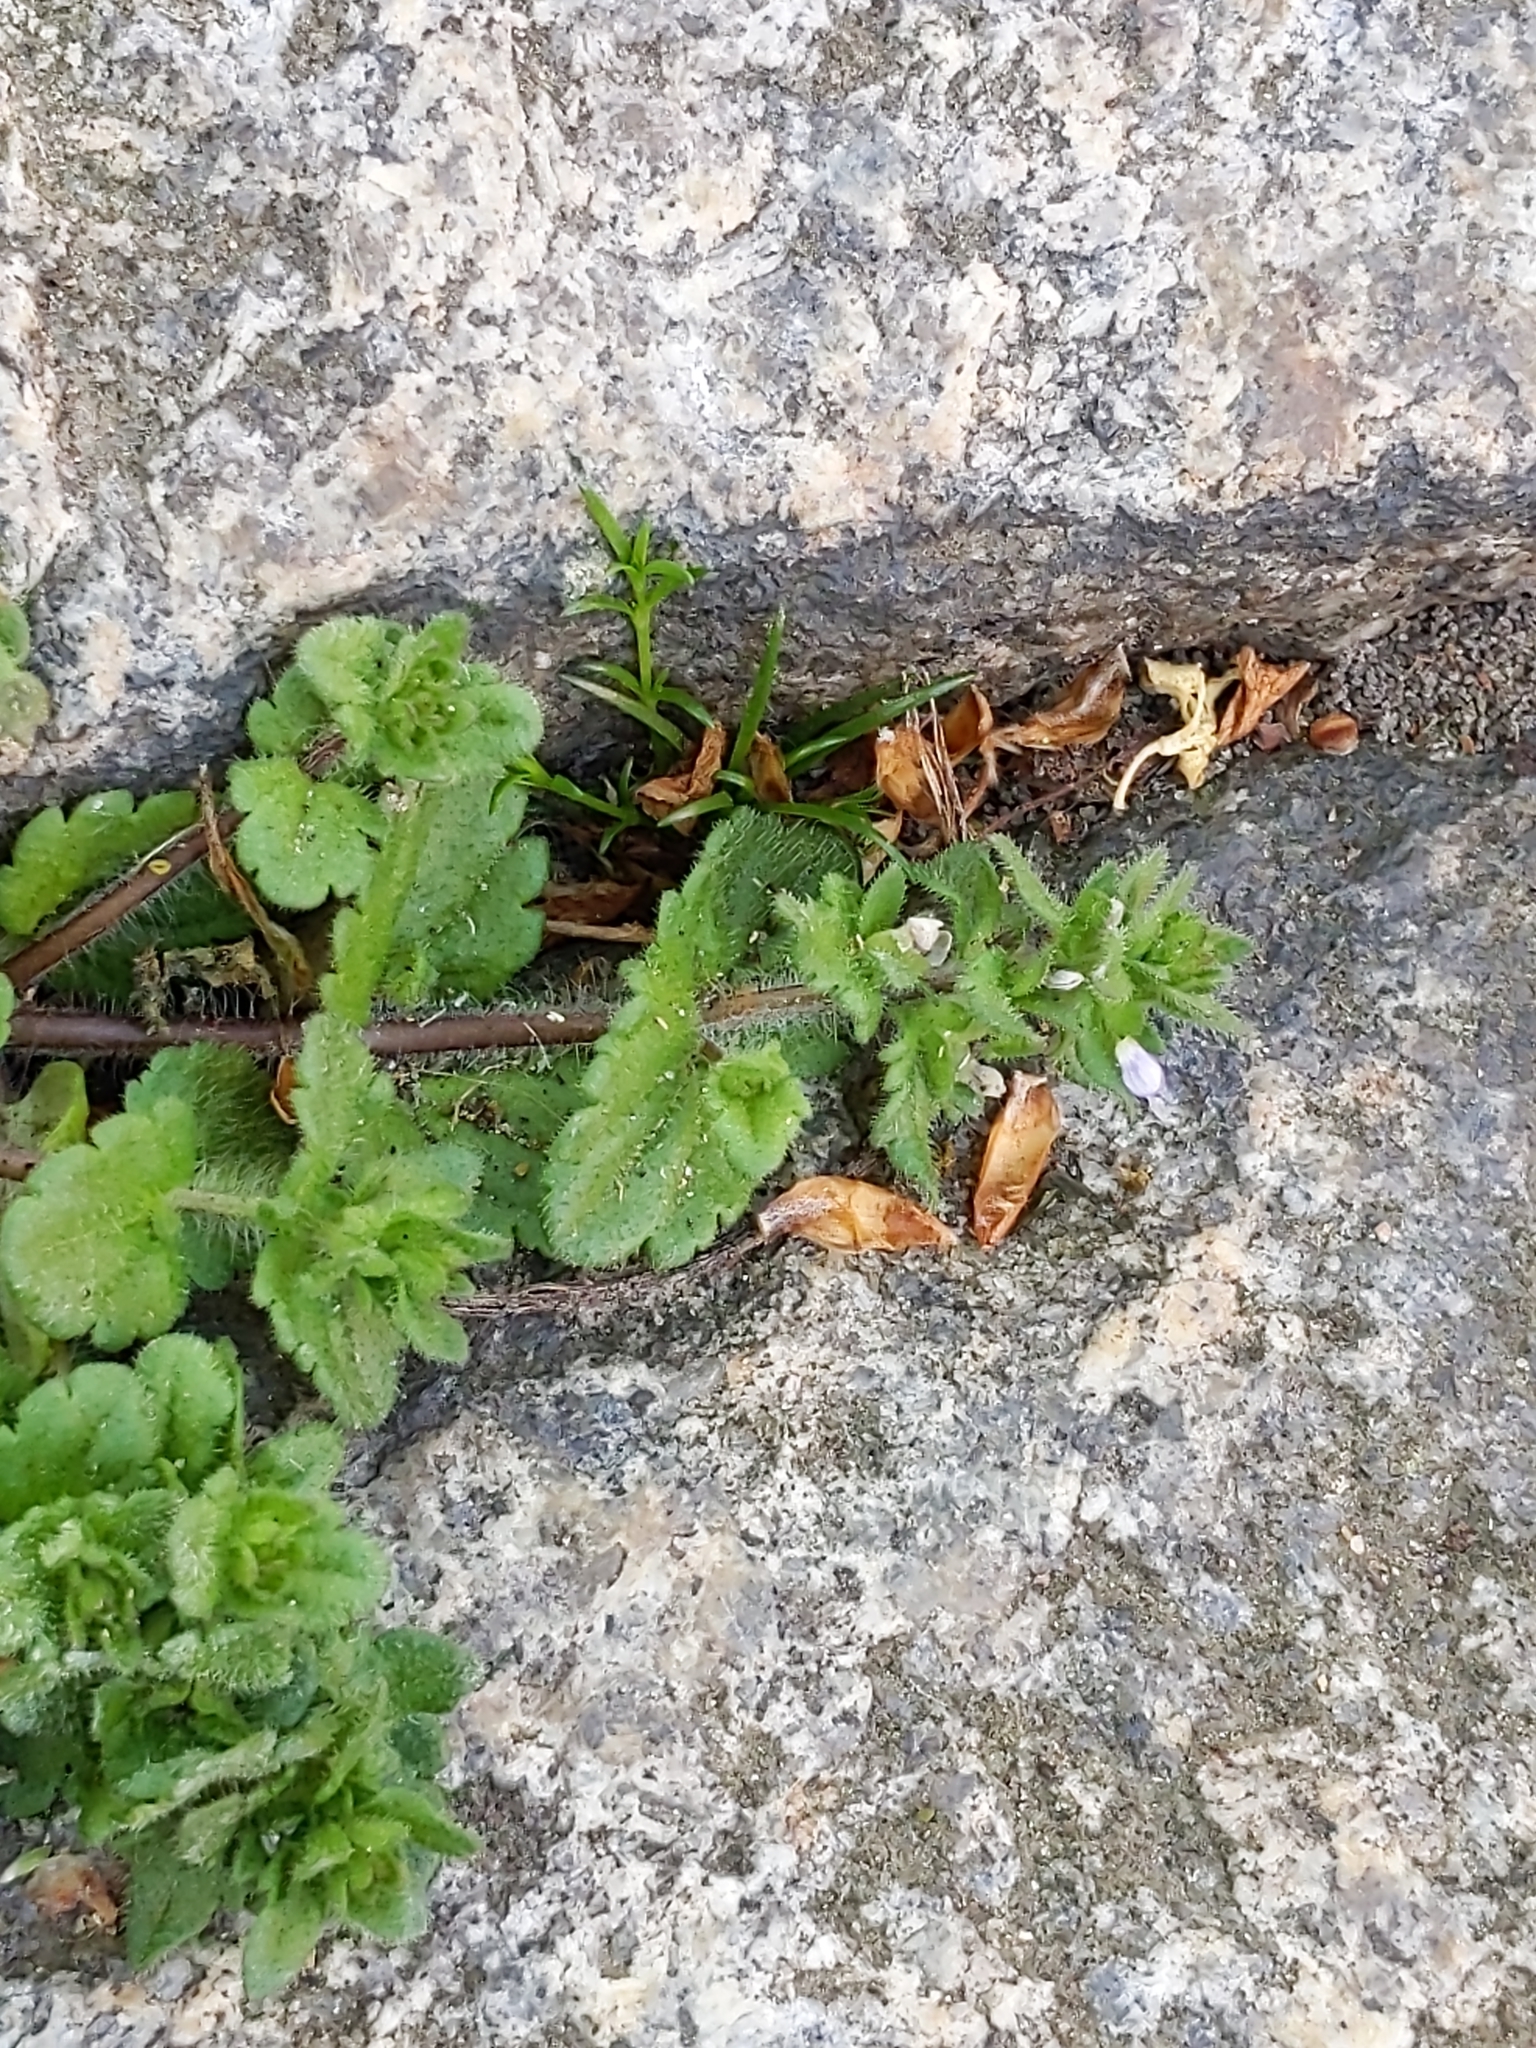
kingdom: Plantae
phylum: Tracheophyta
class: Magnoliopsida
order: Lamiales
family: Plantaginaceae
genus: Veronica
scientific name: Veronica arvensis
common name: Corn speedwell
